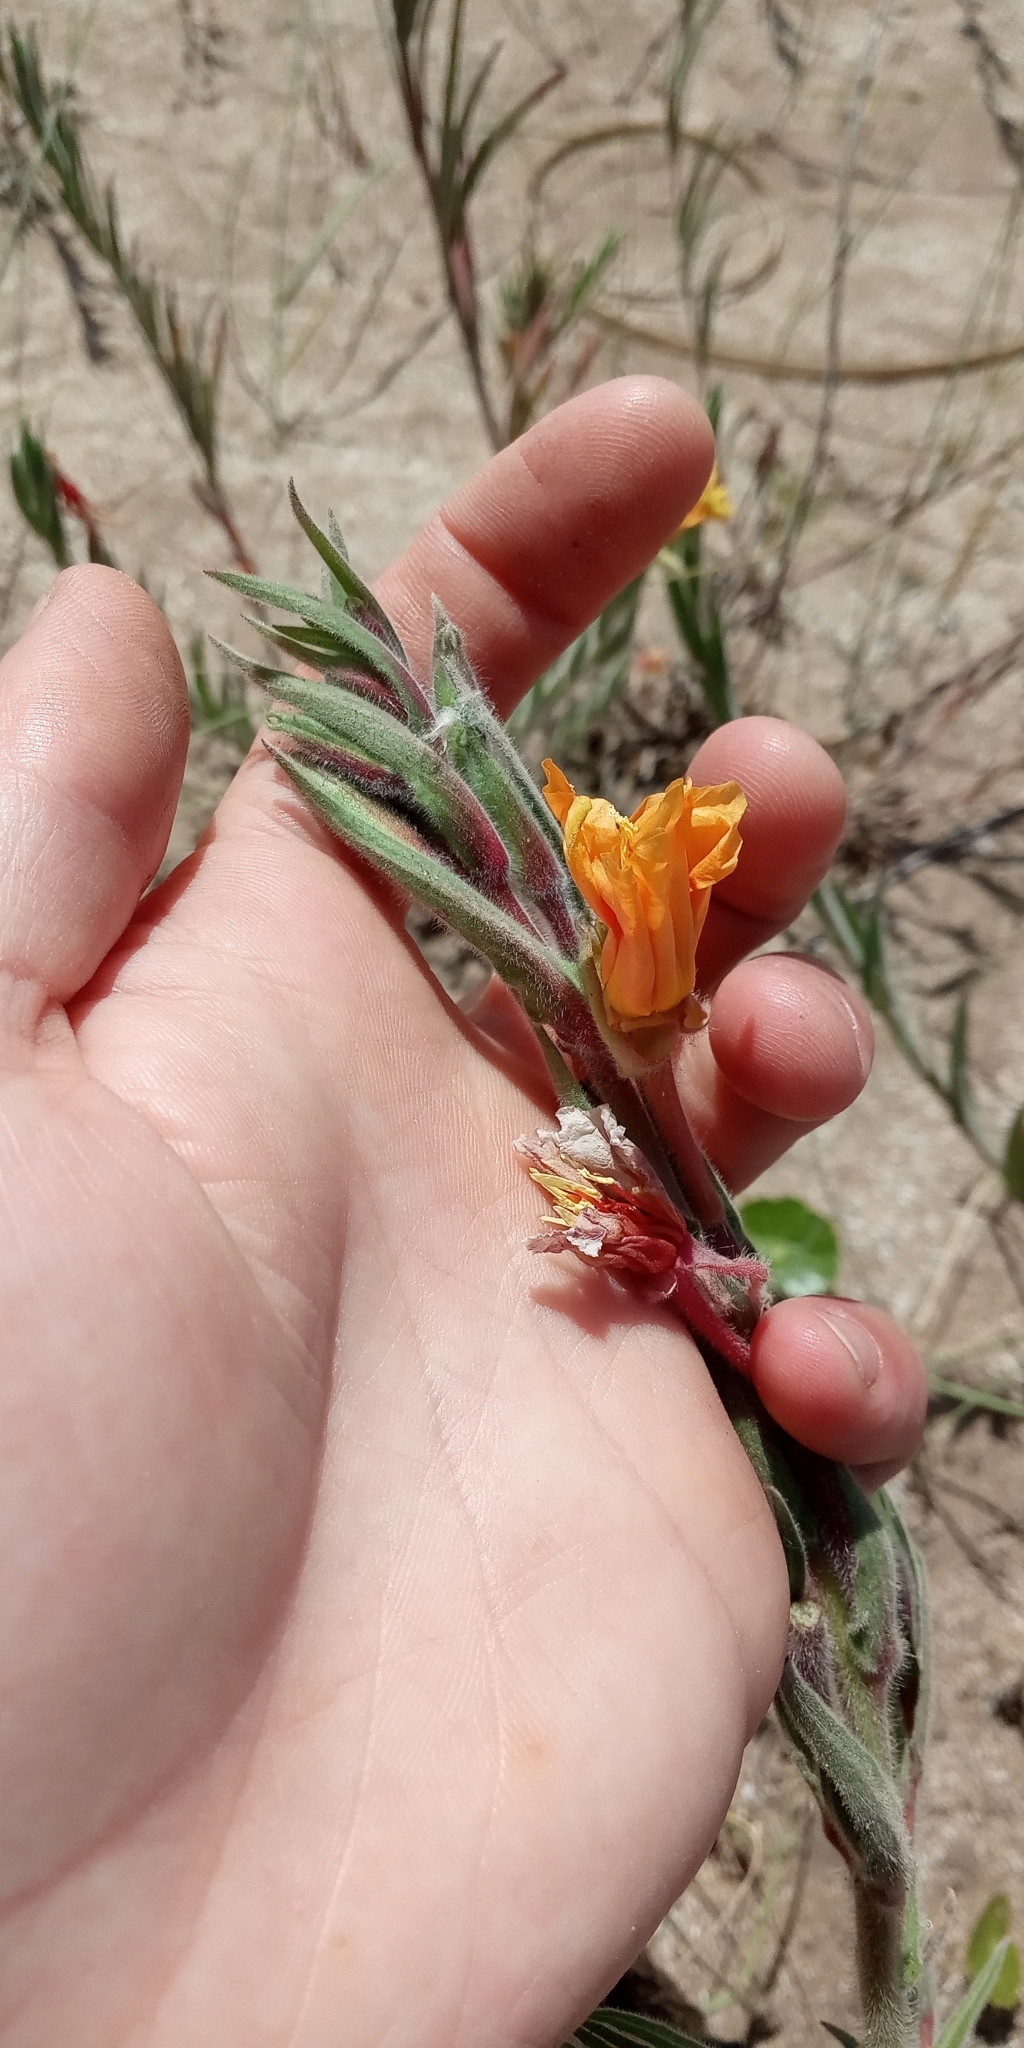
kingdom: Plantae
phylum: Tracheophyta
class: Magnoliopsida
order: Myrtales
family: Onagraceae
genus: Oenothera
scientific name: Oenothera mollissima
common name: Argentine evening primrose
